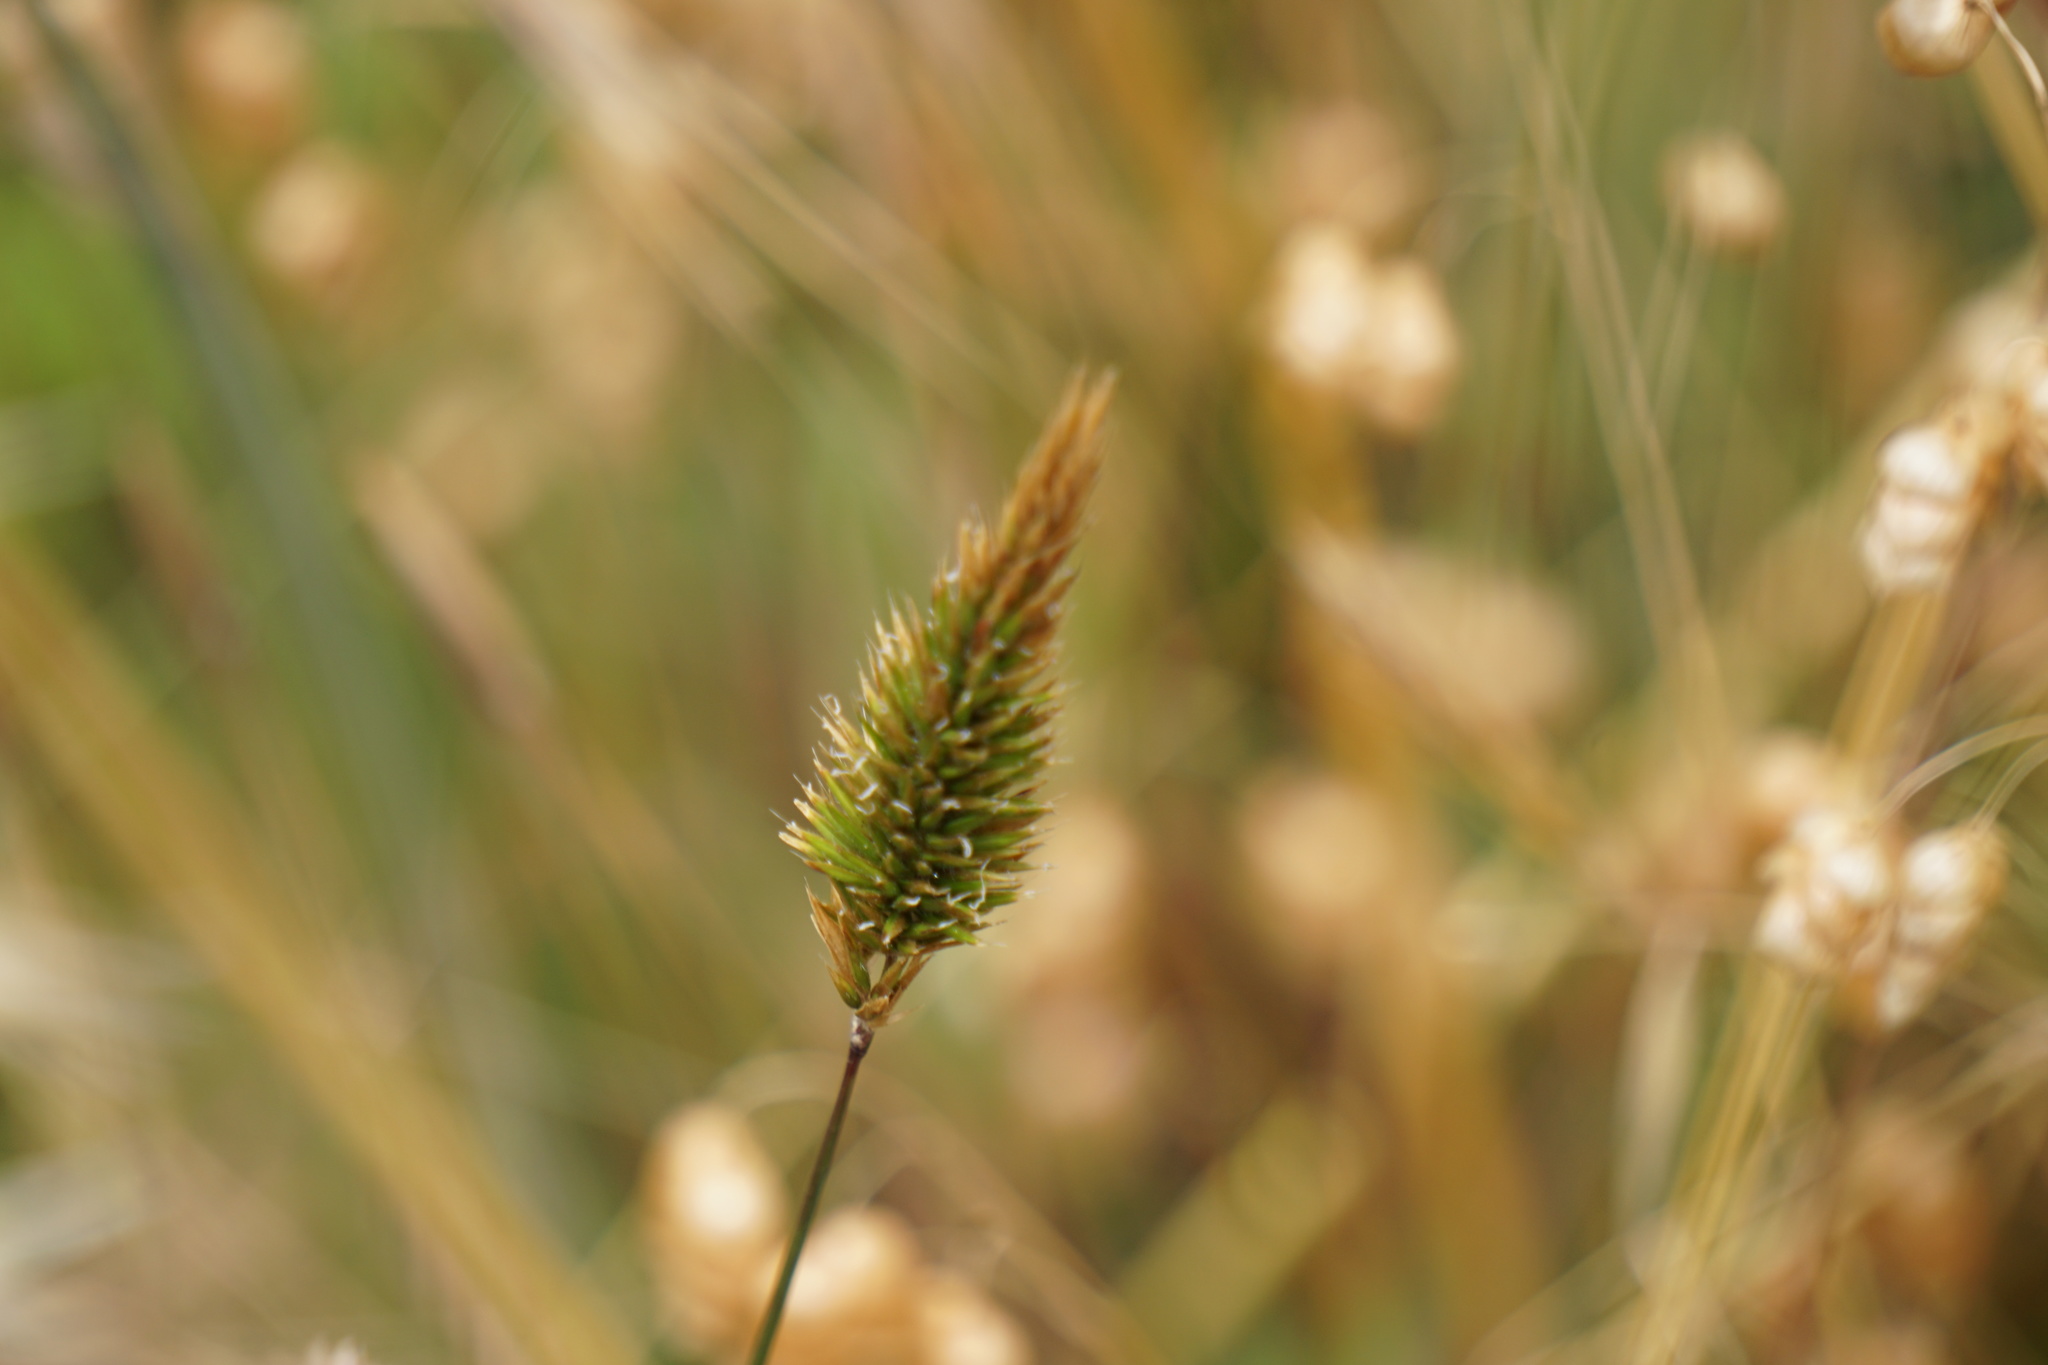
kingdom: Plantae
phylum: Tracheophyta
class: Liliopsida
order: Poales
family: Poaceae
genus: Anthoxanthum
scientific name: Anthoxanthum odoratum
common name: Sweet vernalgrass
